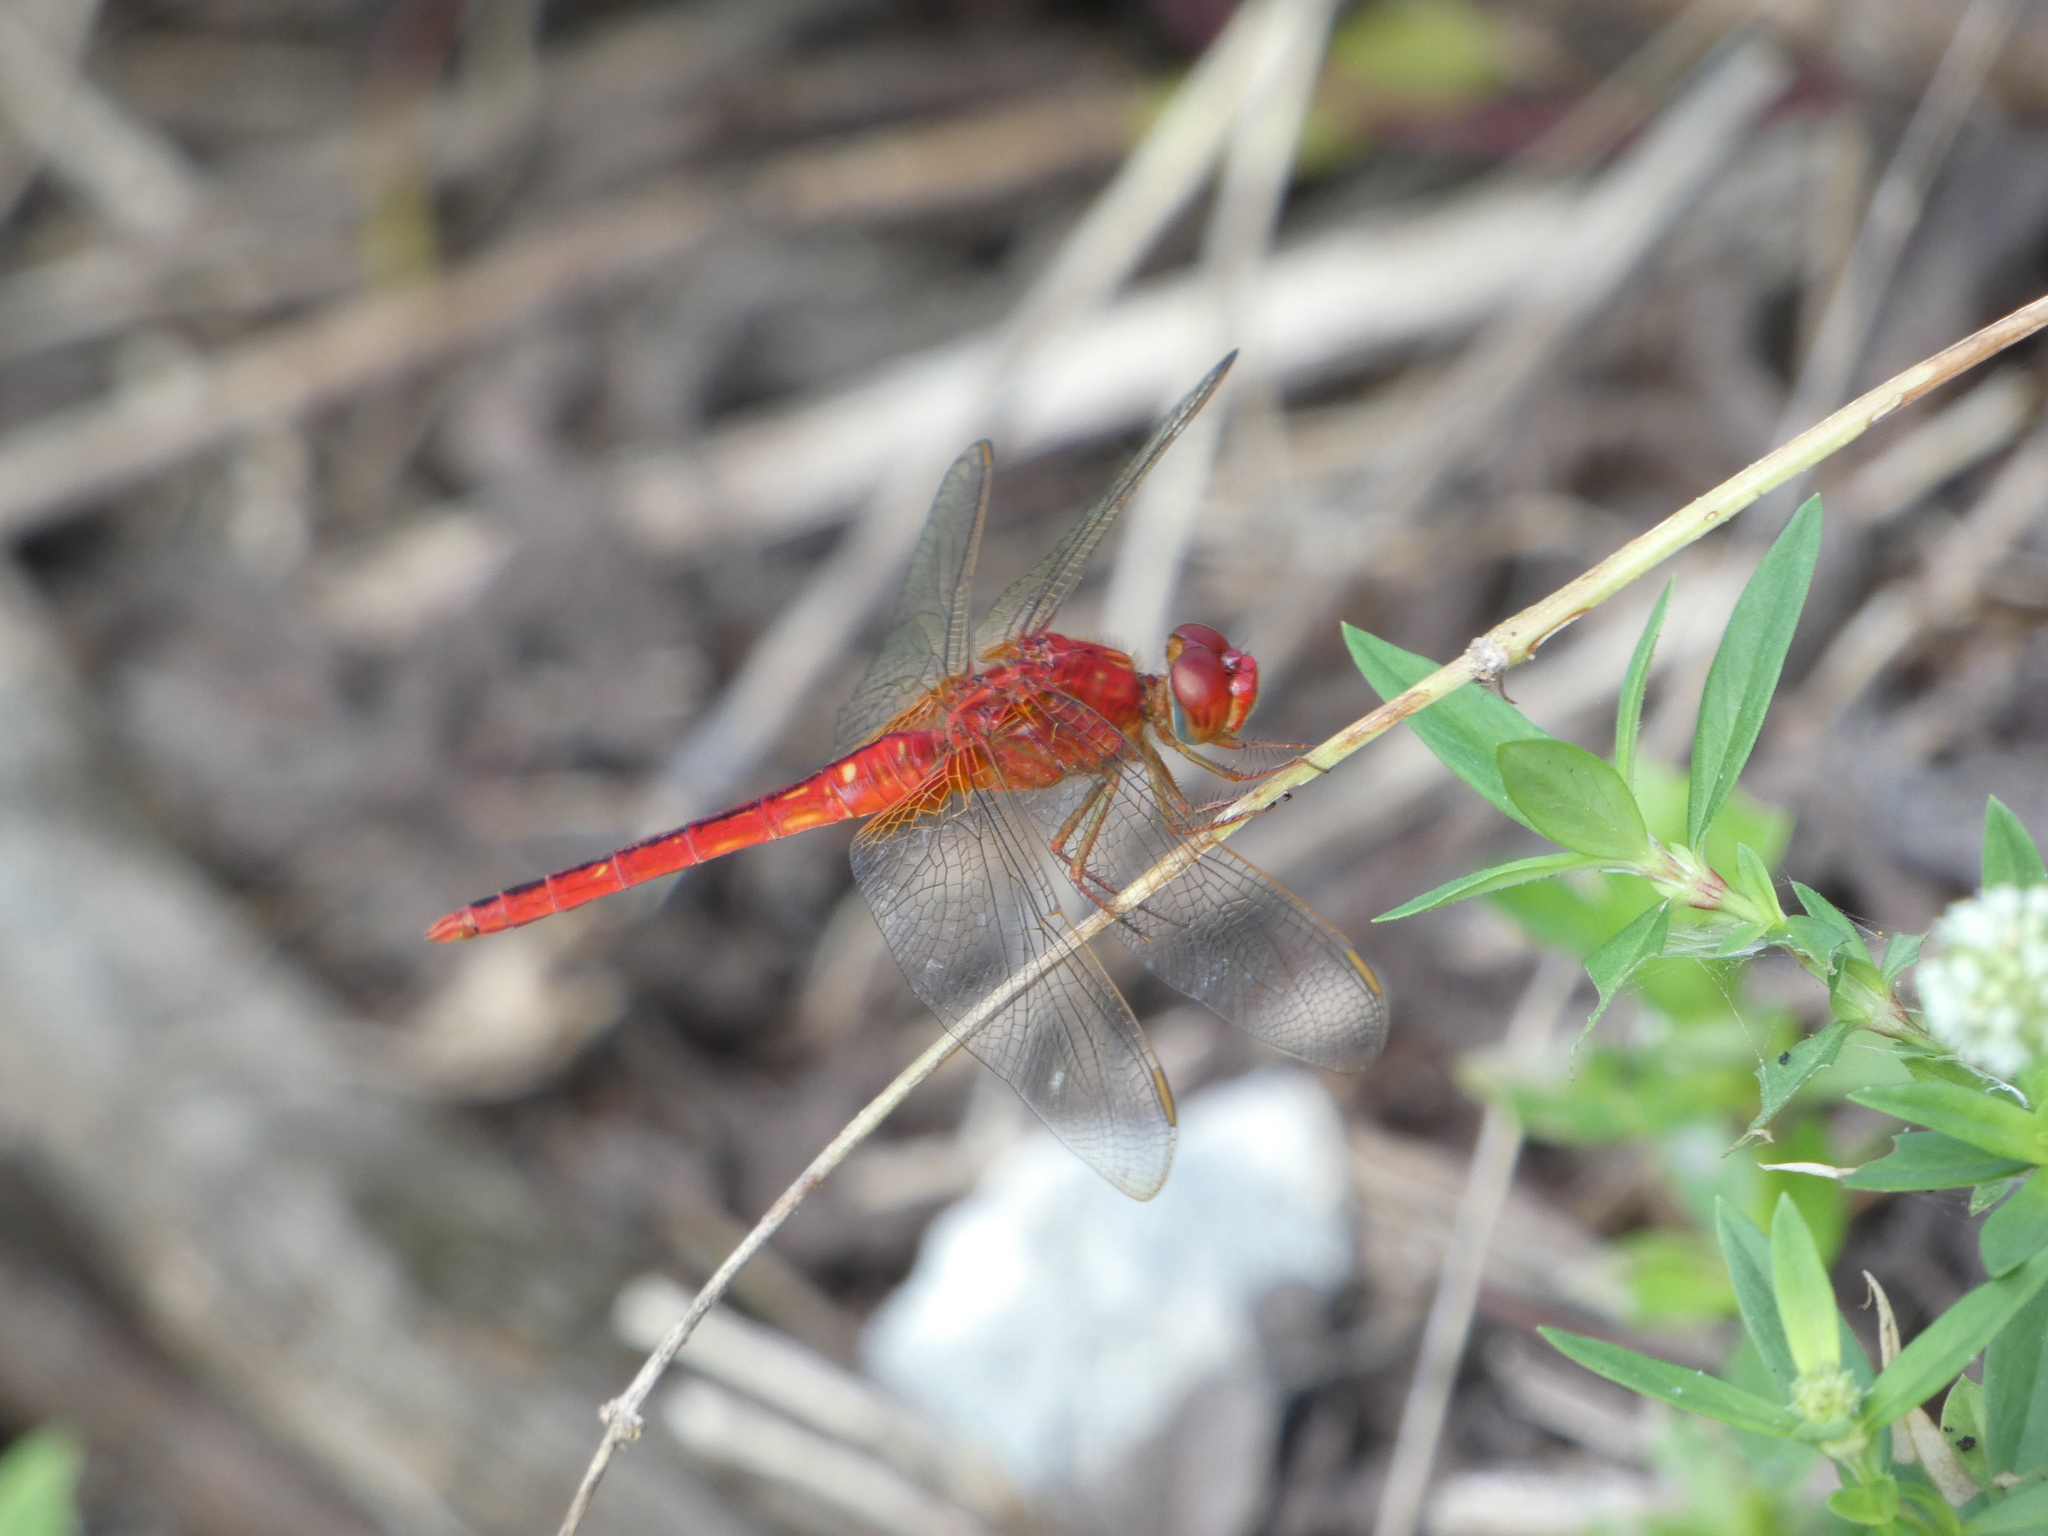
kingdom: Animalia
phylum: Arthropoda
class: Insecta
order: Odonata
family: Libellulidae
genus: Crocothemis
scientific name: Crocothemis servilia
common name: Scarlet skimmer
